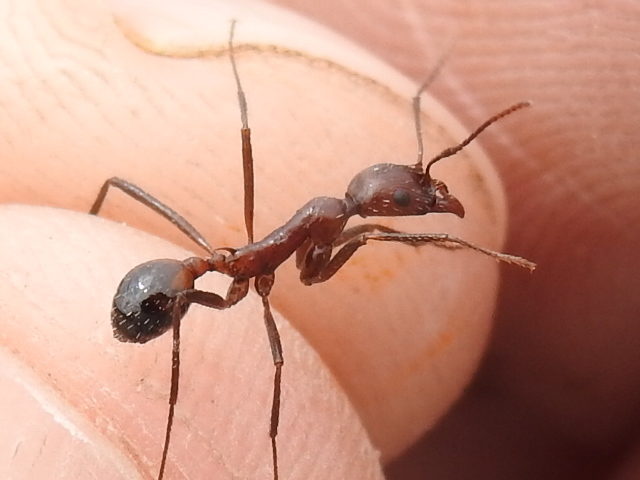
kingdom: Animalia
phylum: Arthropoda
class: Insecta
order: Hymenoptera
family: Formicidae
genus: Novomessor
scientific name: Novomessor cockerelli
